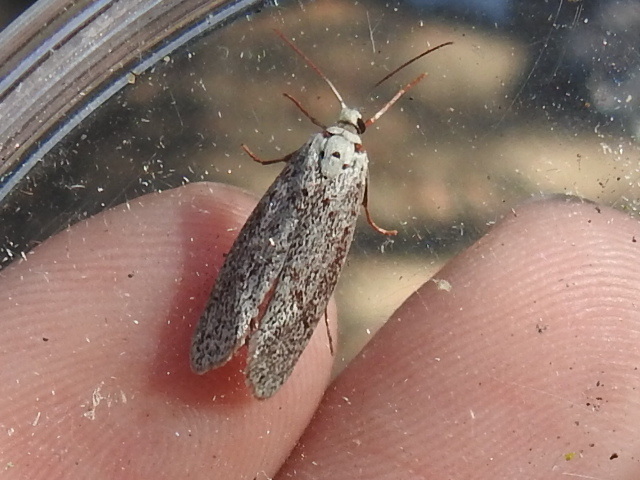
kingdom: Animalia
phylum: Arthropoda
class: Insecta
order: Lepidoptera
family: Lacturidae
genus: Lactura
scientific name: Lactura
